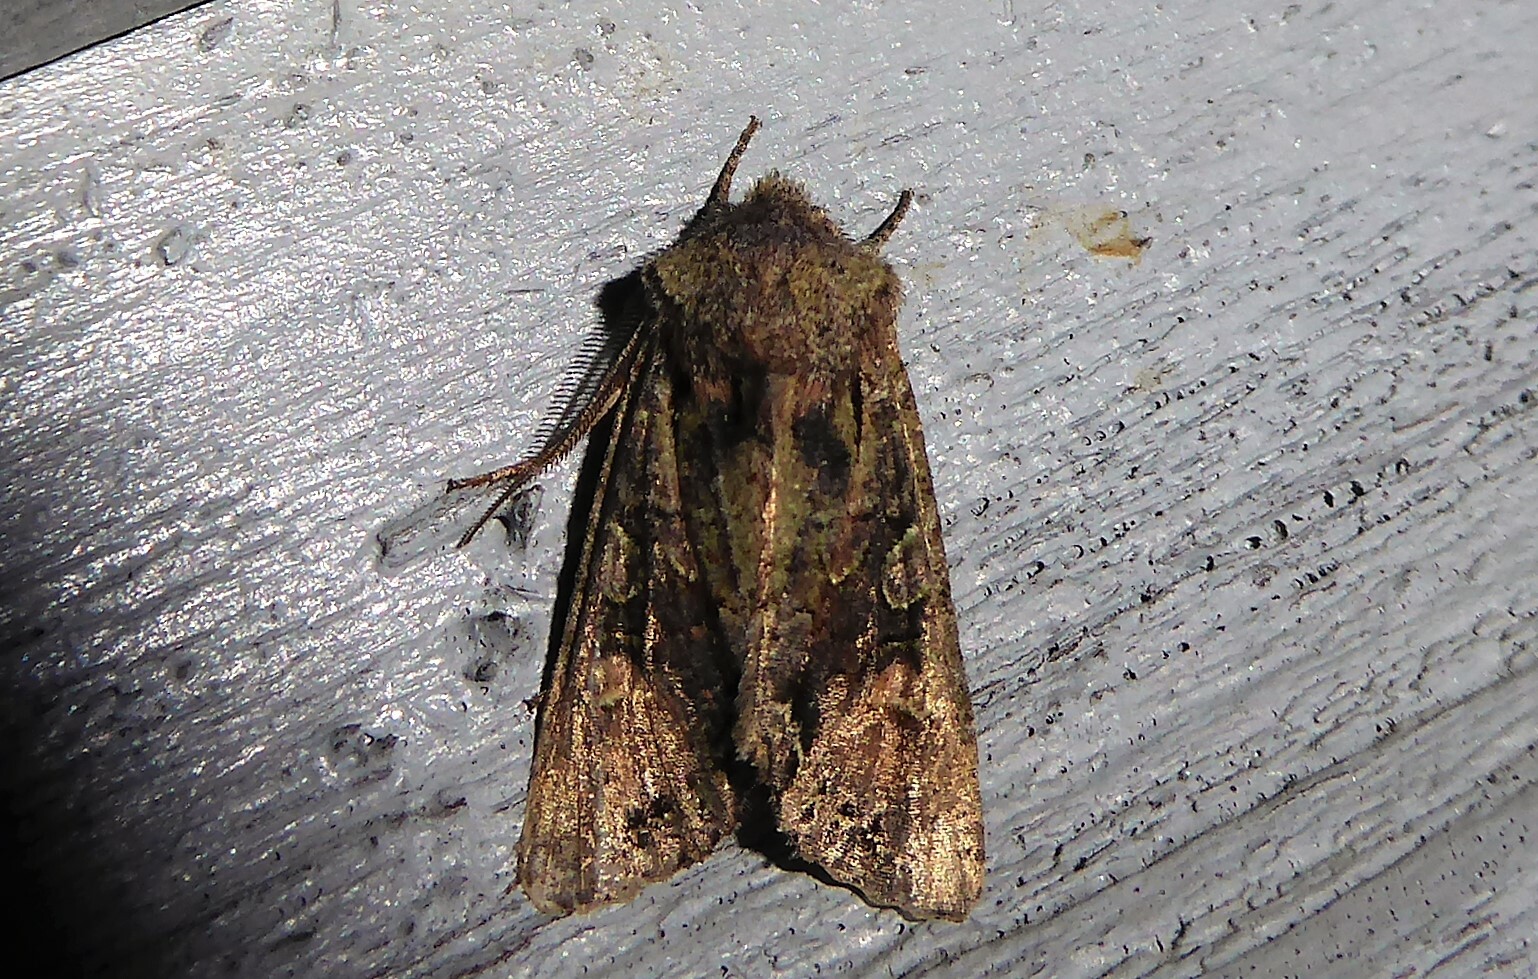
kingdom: Animalia
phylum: Arthropoda
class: Insecta
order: Lepidoptera
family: Noctuidae
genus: Ichneutica
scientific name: Ichneutica
